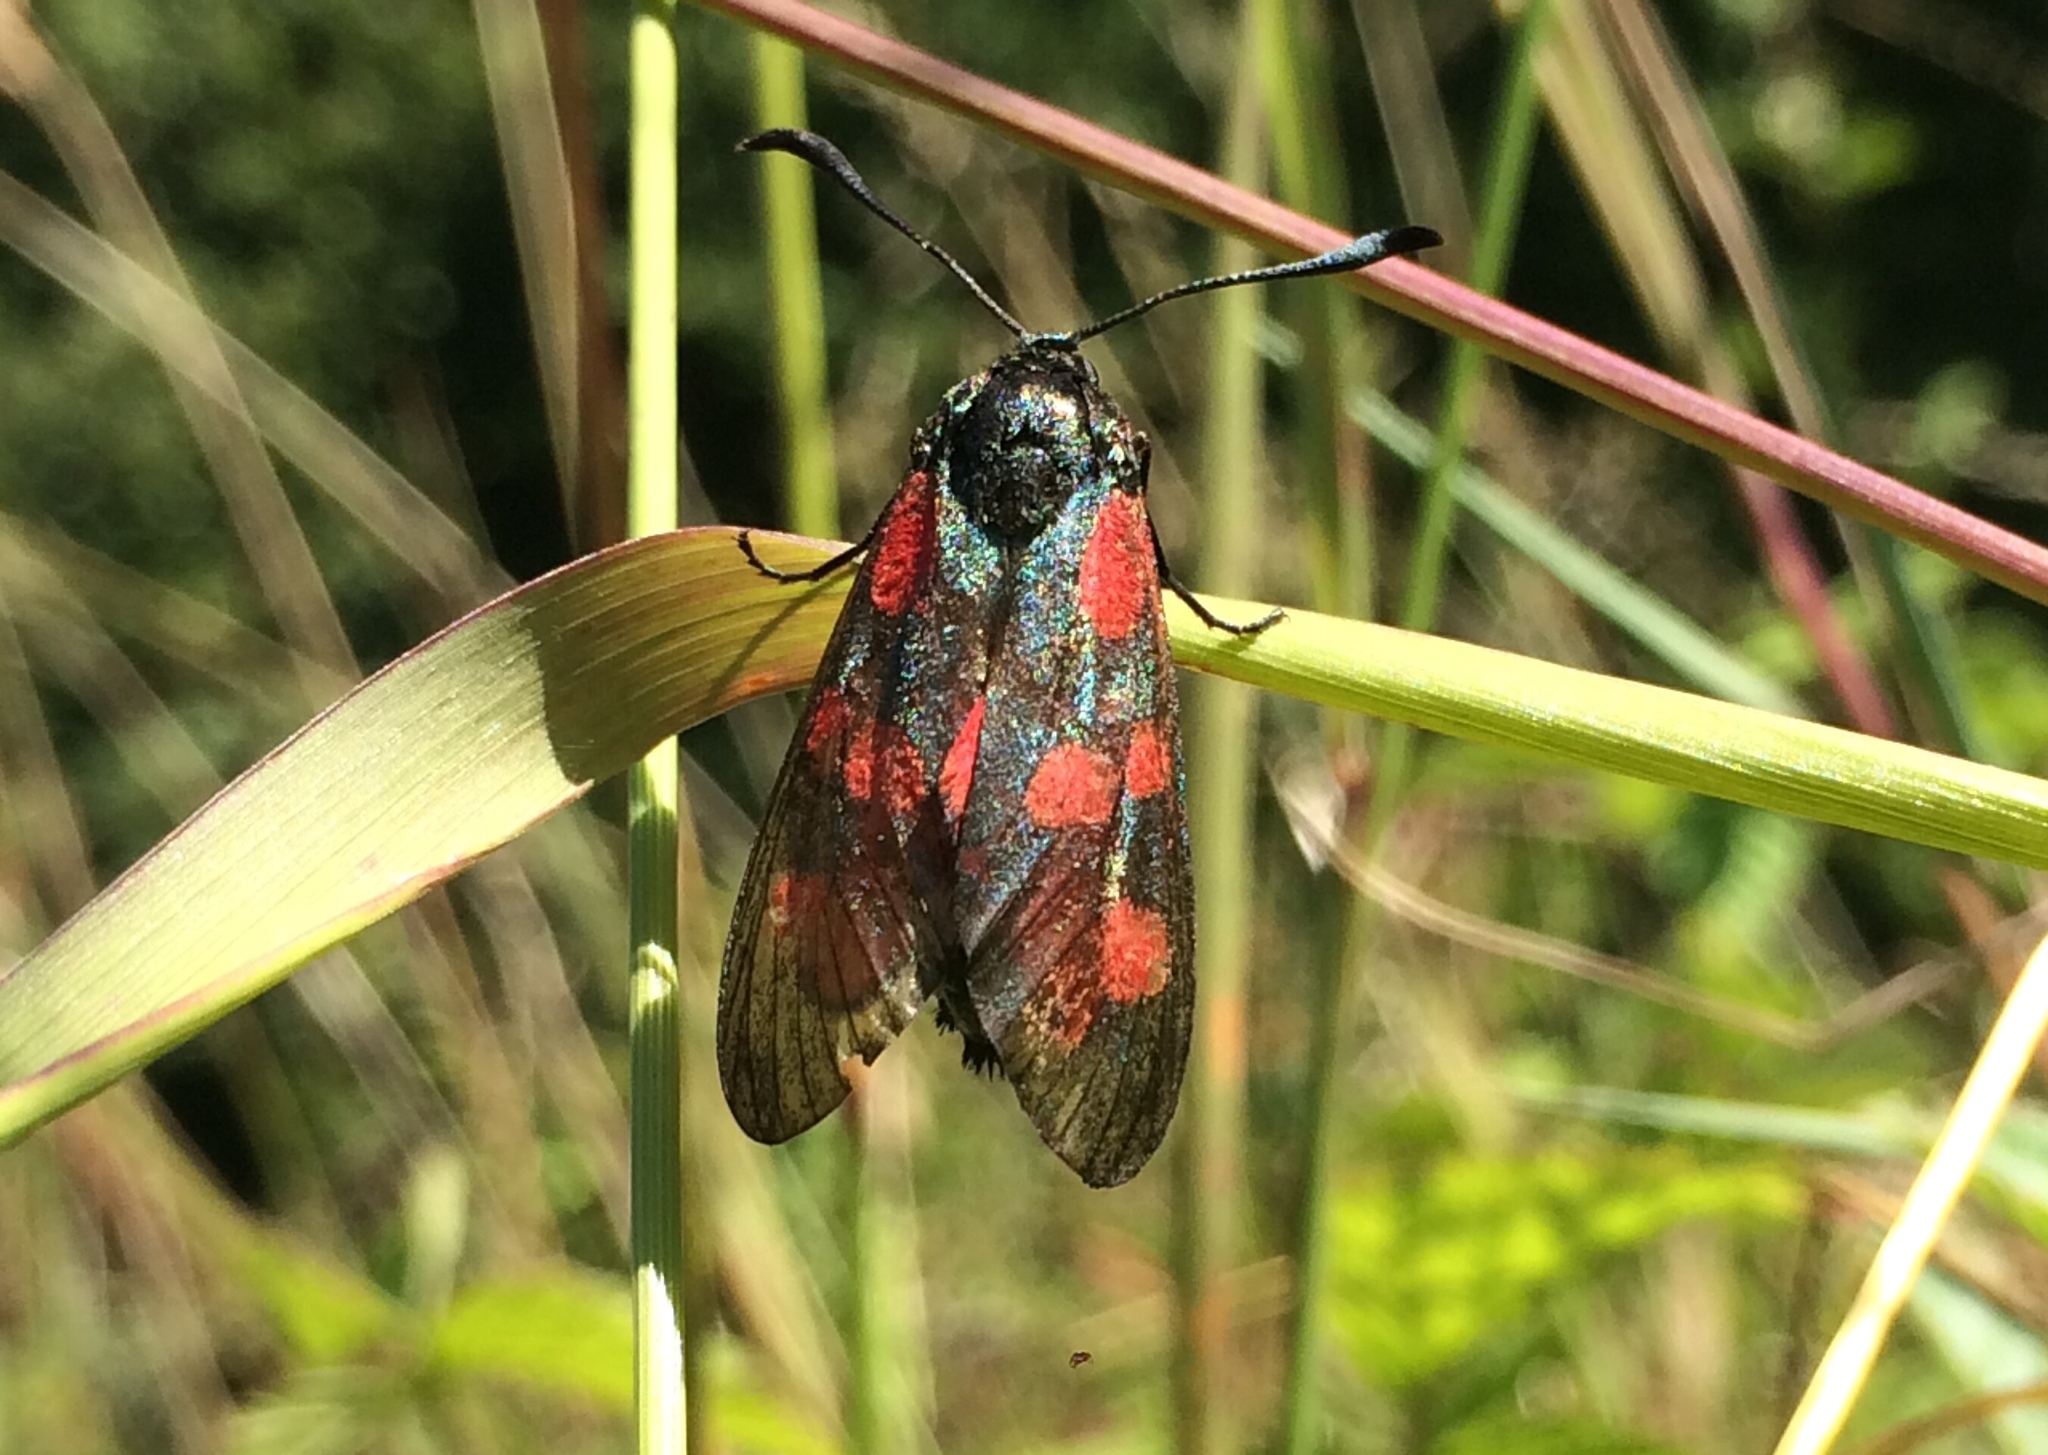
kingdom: Animalia
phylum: Arthropoda
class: Insecta
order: Lepidoptera
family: Zygaenidae
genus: Zygaena
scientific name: Zygaena filipendulae
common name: Six-spot burnet
